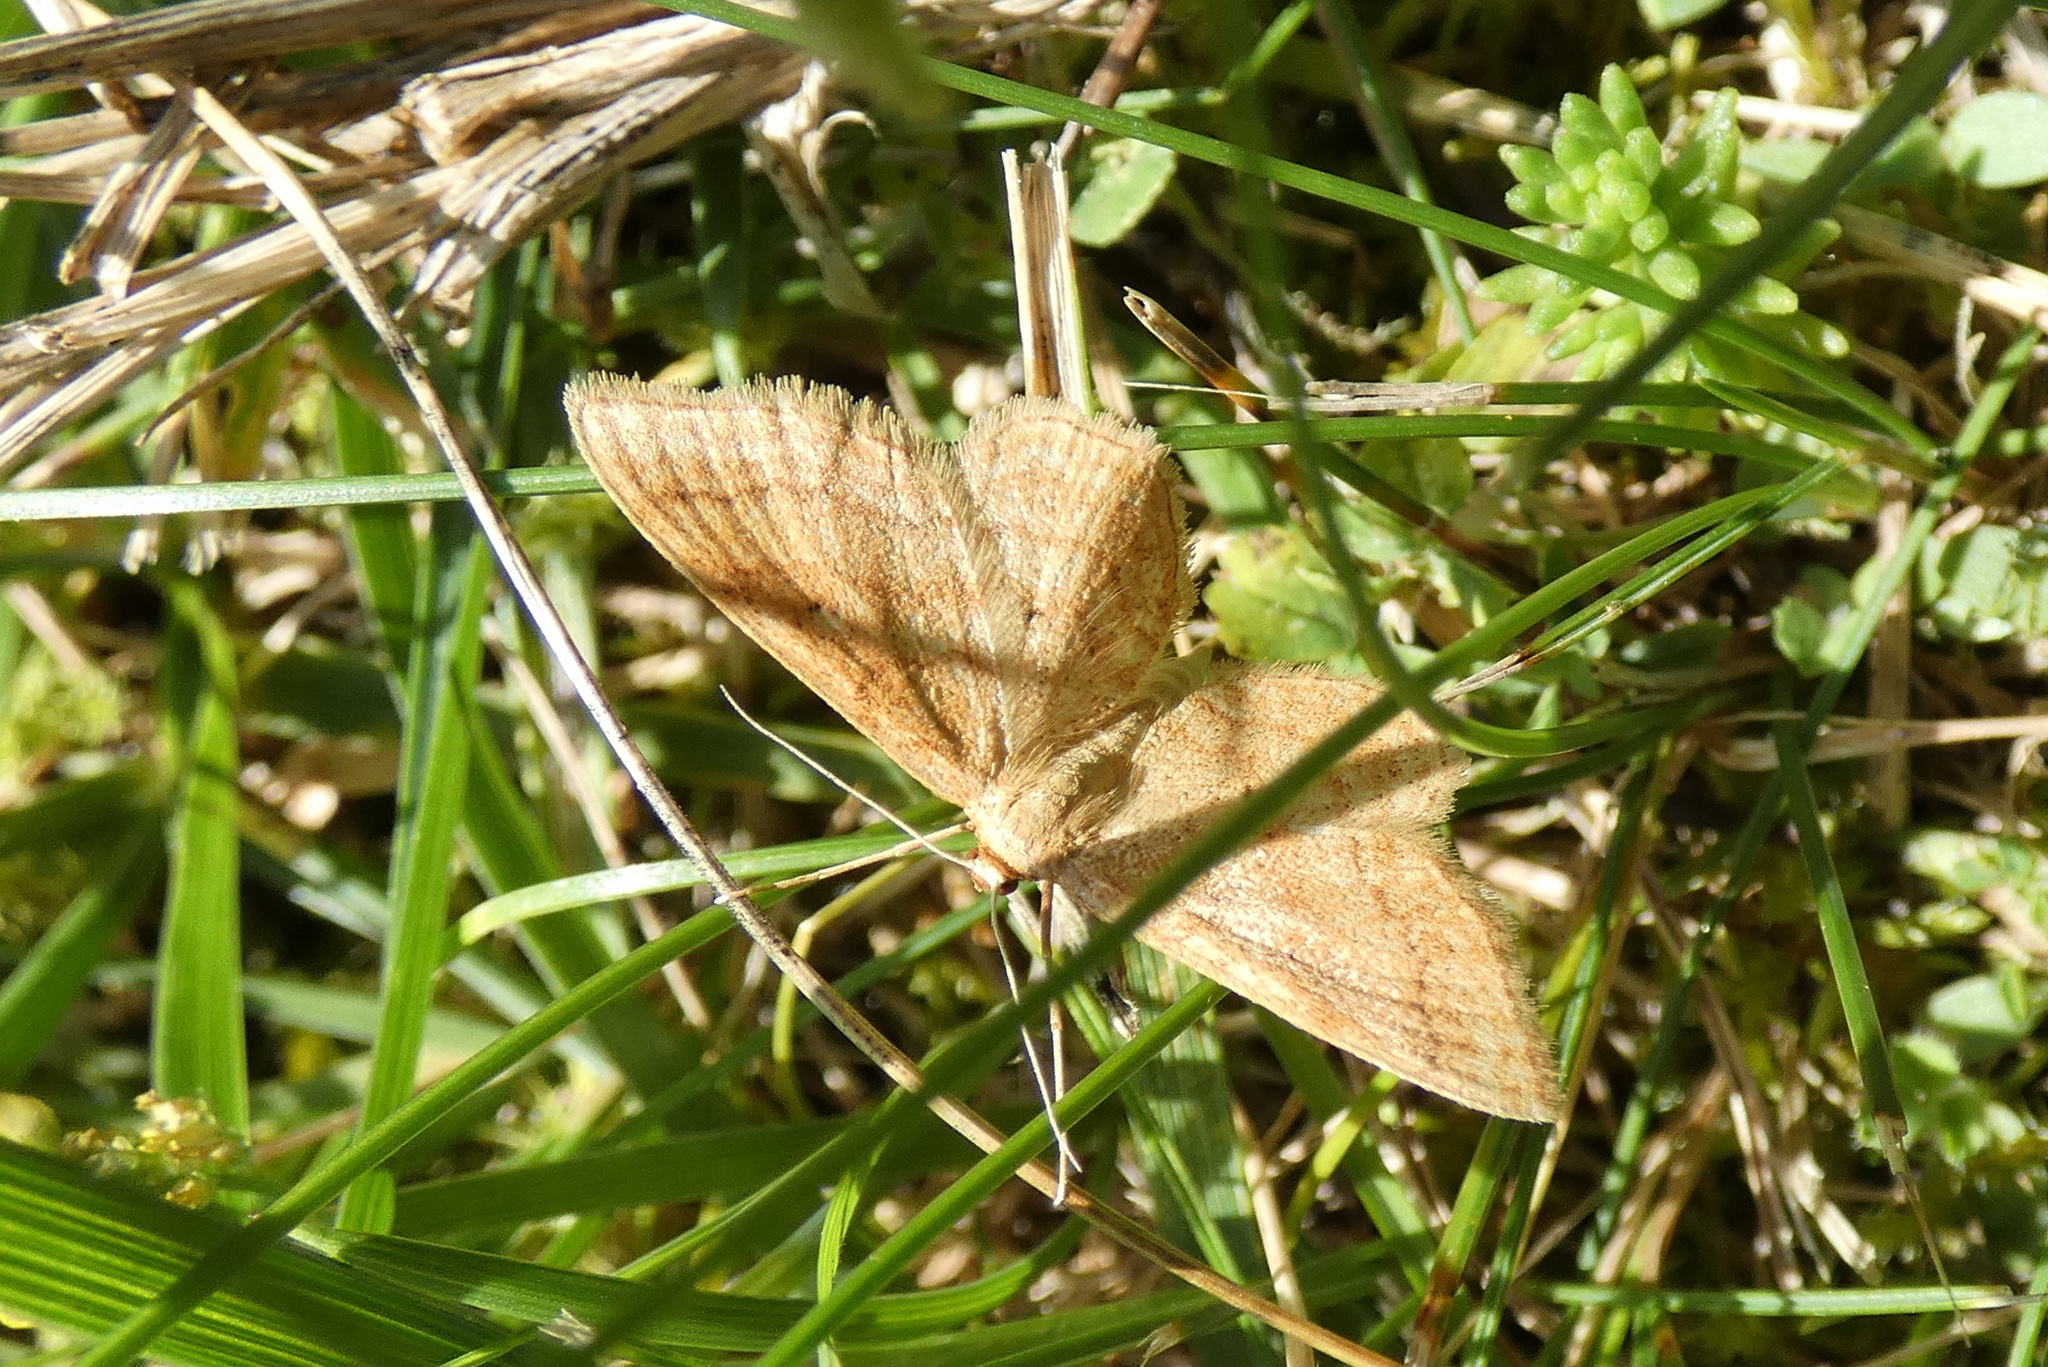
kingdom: Animalia
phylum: Arthropoda
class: Insecta
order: Lepidoptera
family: Geometridae
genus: Idaea
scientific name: Idaea rufaria
